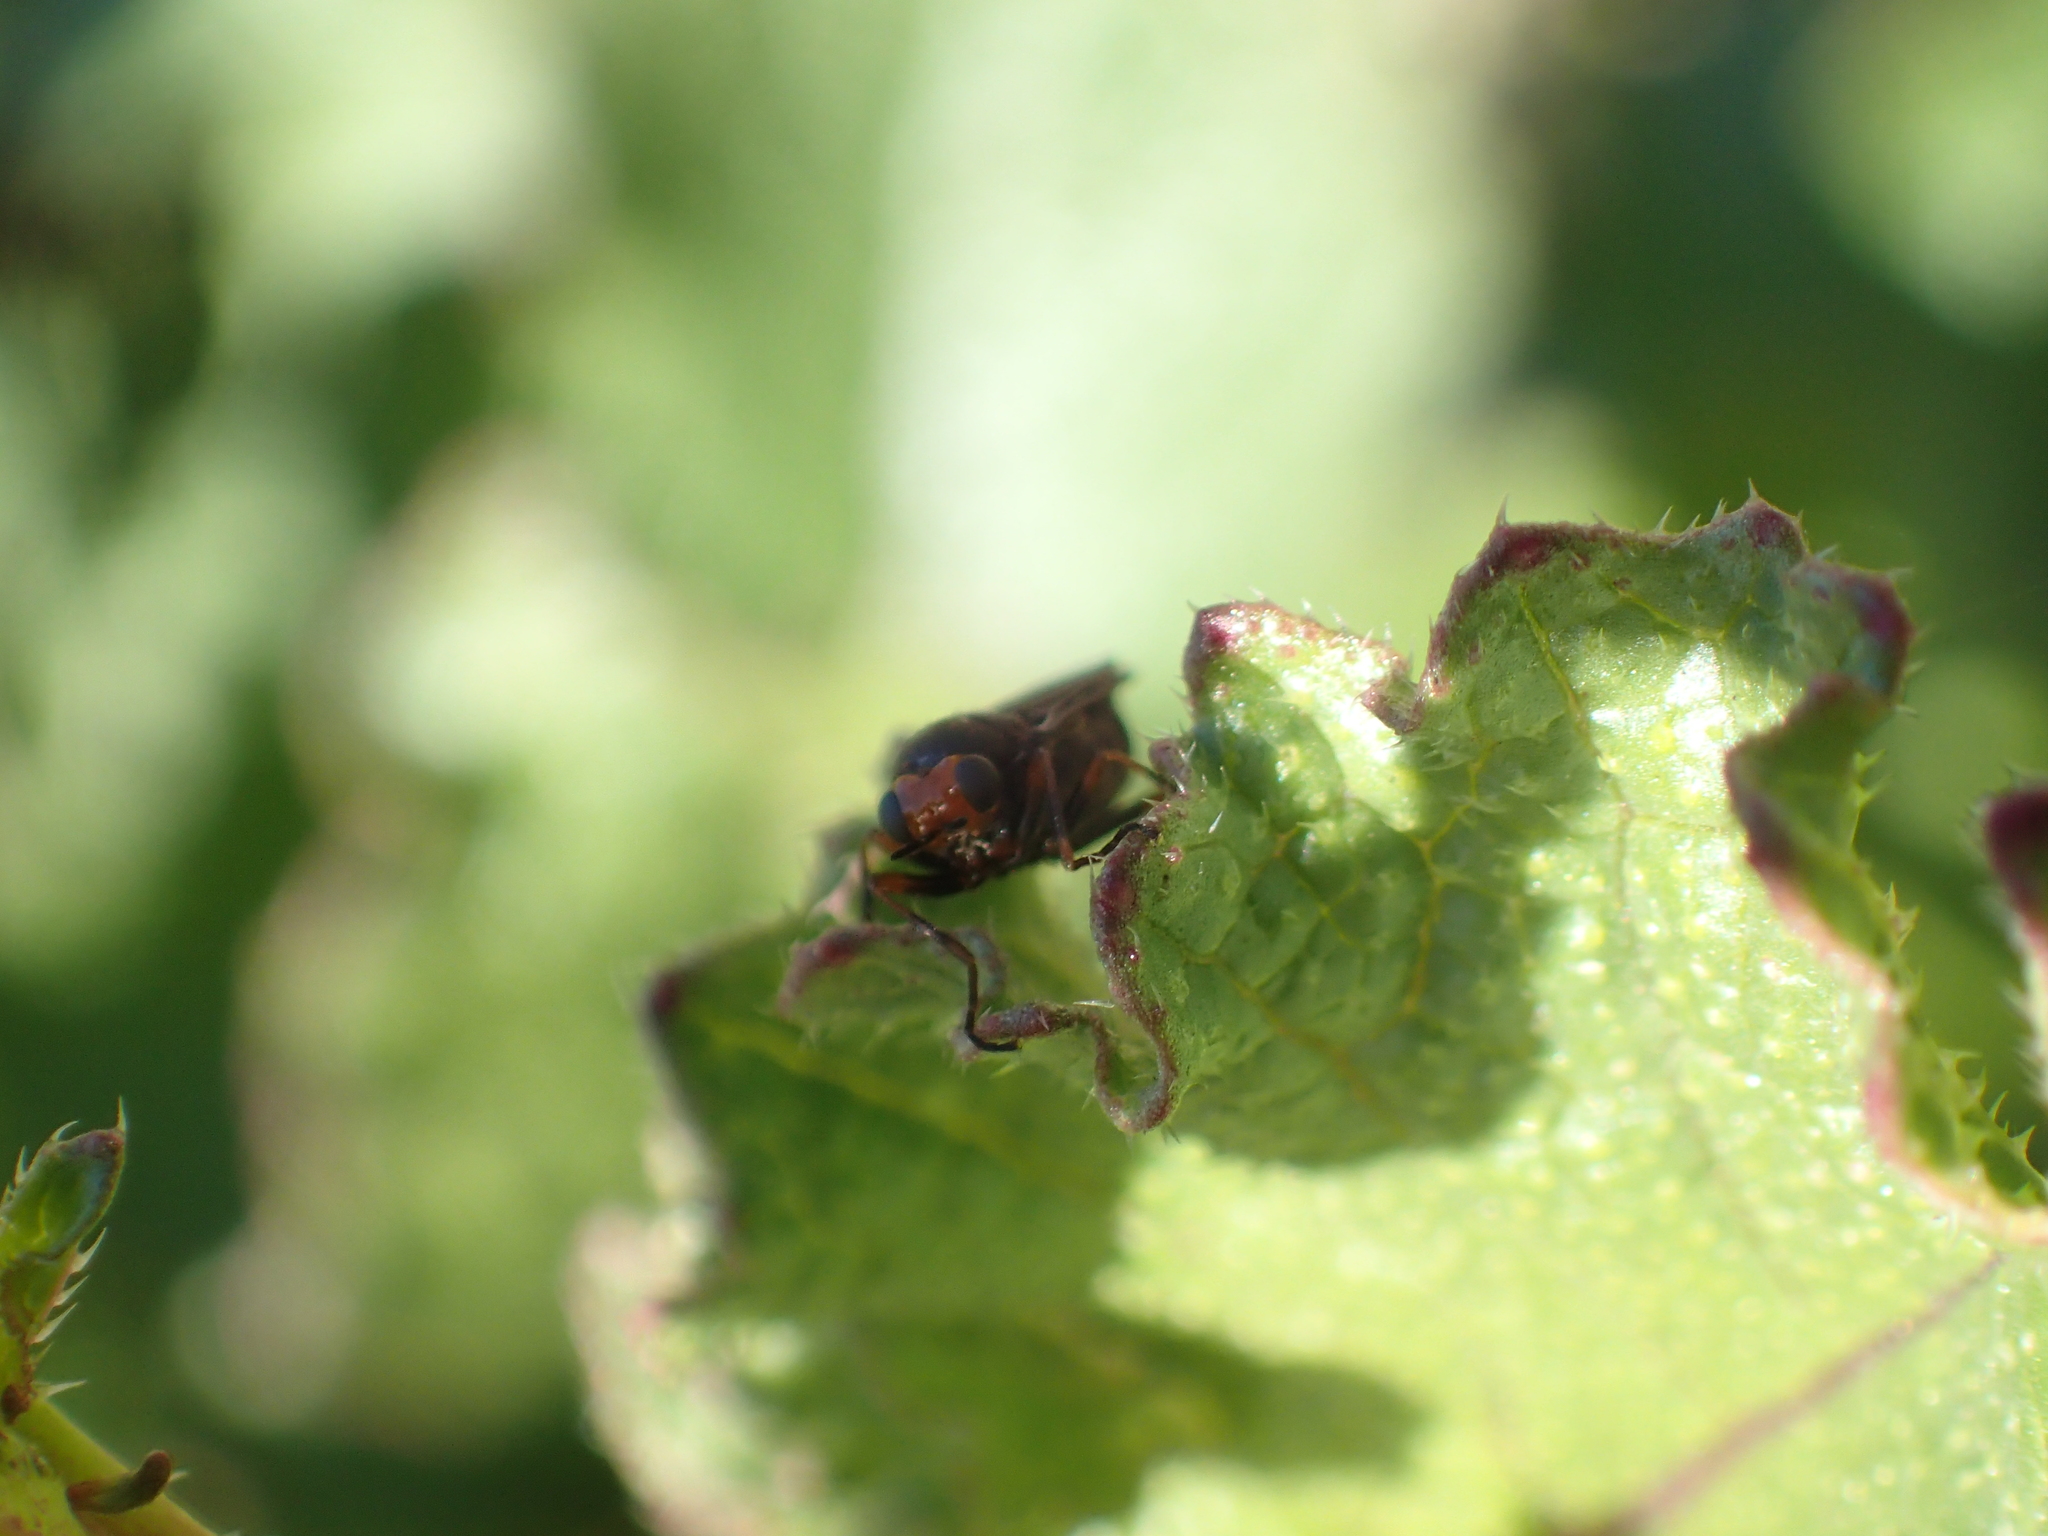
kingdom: Animalia
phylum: Arthropoda
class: Insecta
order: Diptera
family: Stratiomyidae
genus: Inopus
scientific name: Inopus rubriceps
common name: Soldier fly
